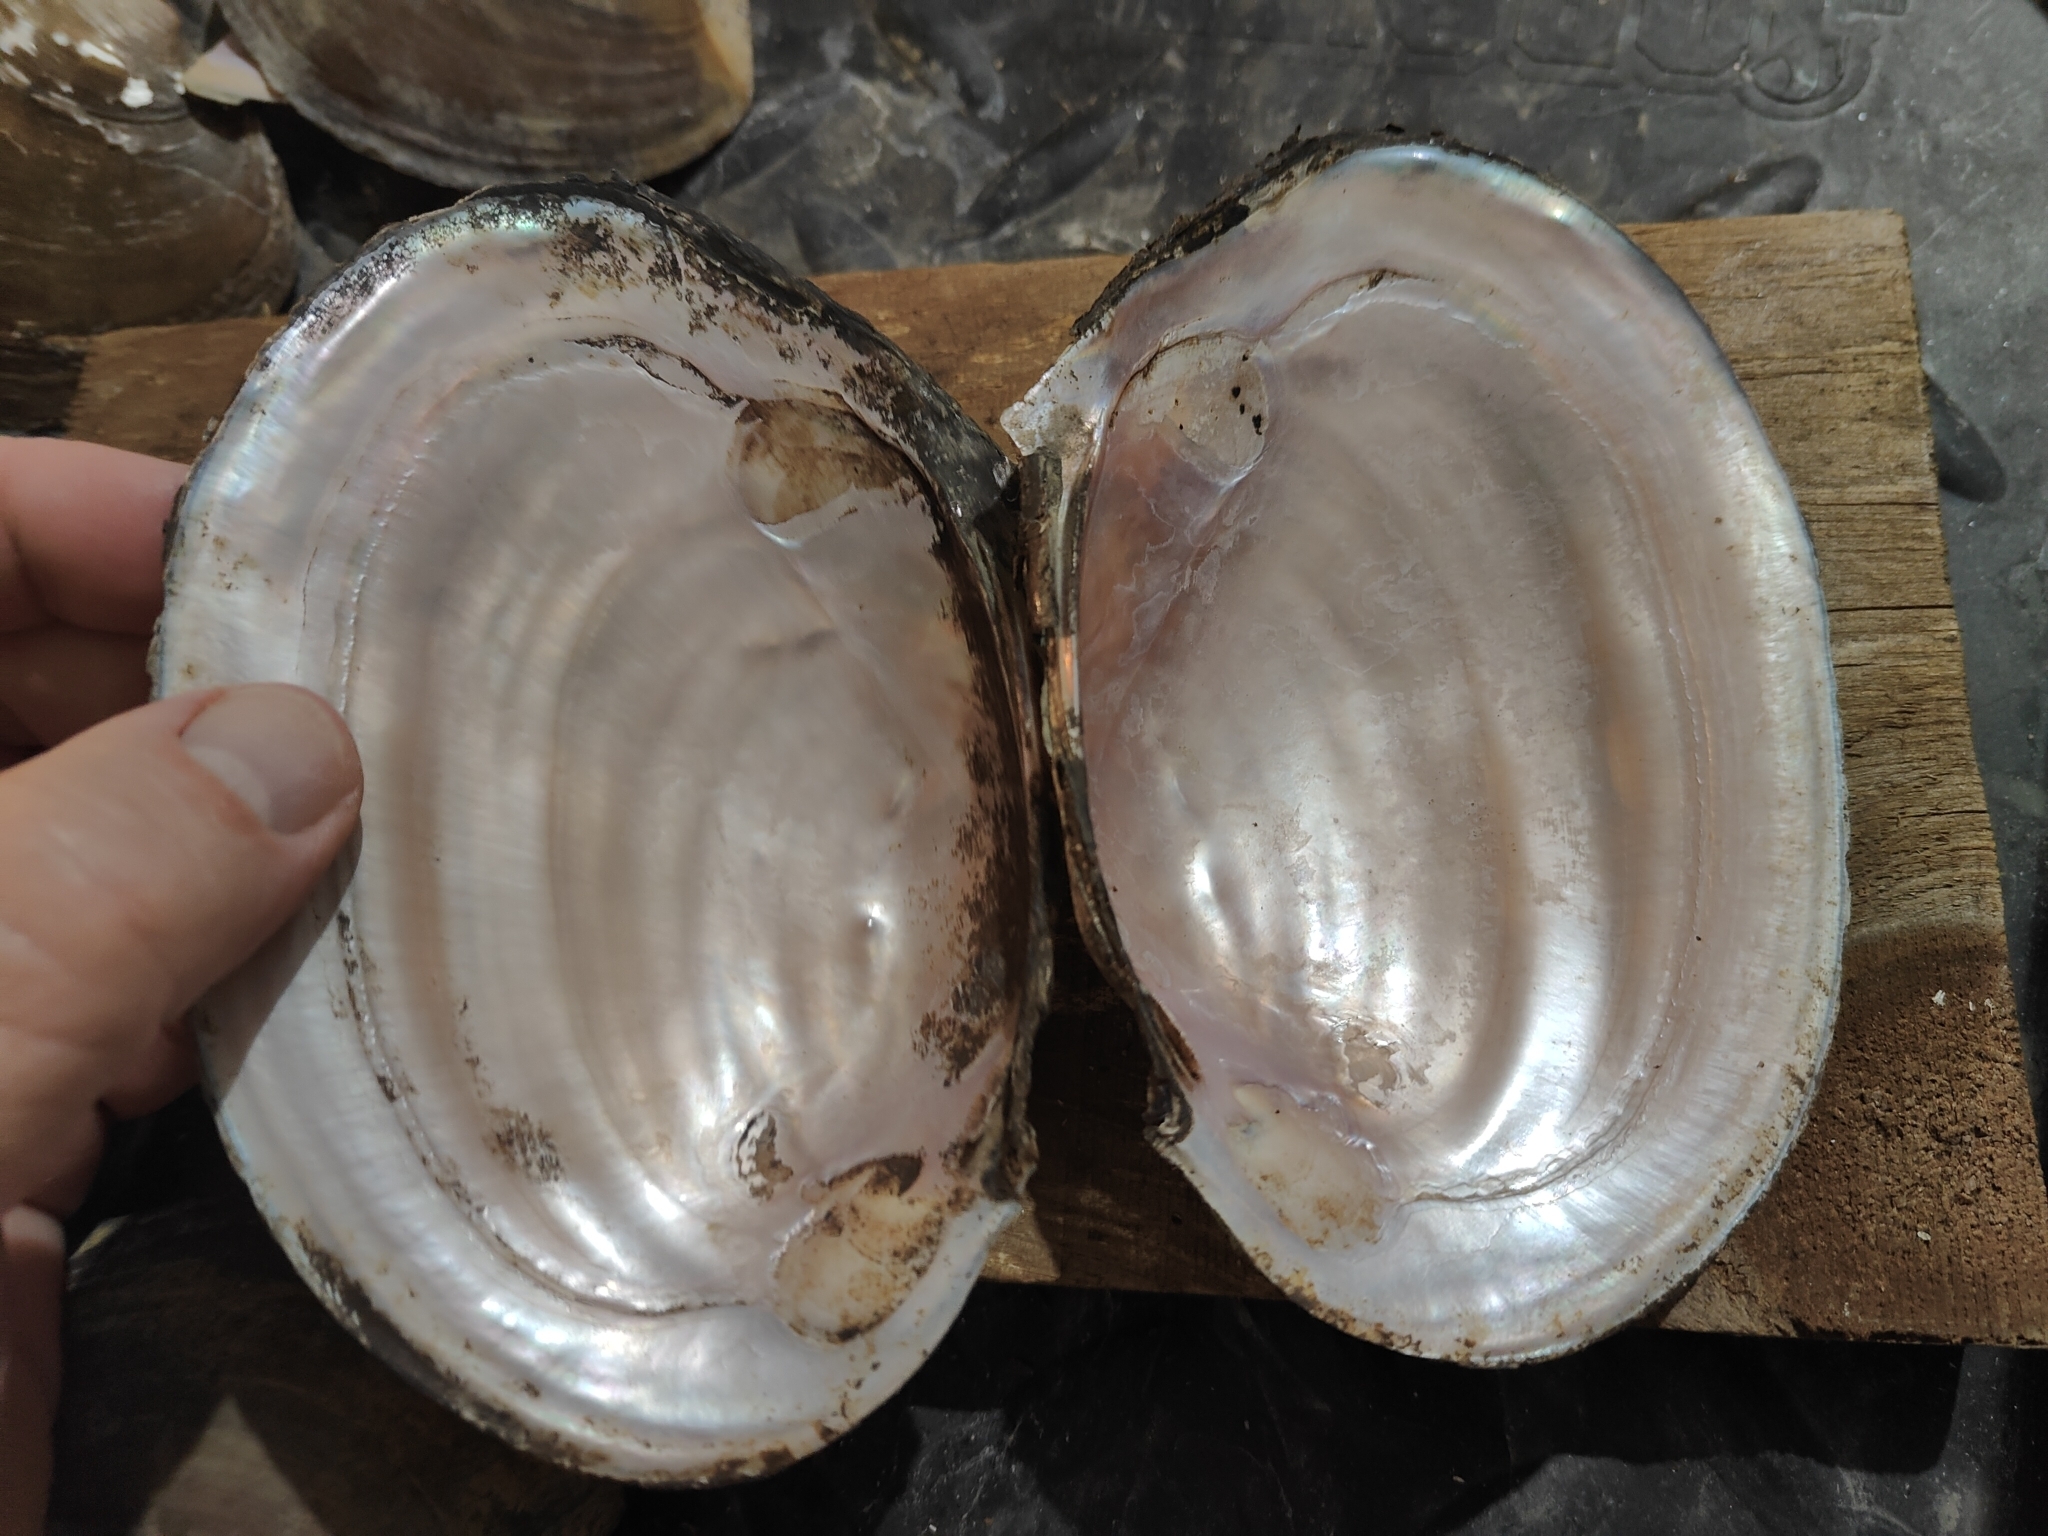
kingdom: Animalia
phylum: Mollusca
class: Bivalvia
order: Unionida
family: Unionidae
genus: Potamilus
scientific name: Potamilus ohiensis
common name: Pink papershell
